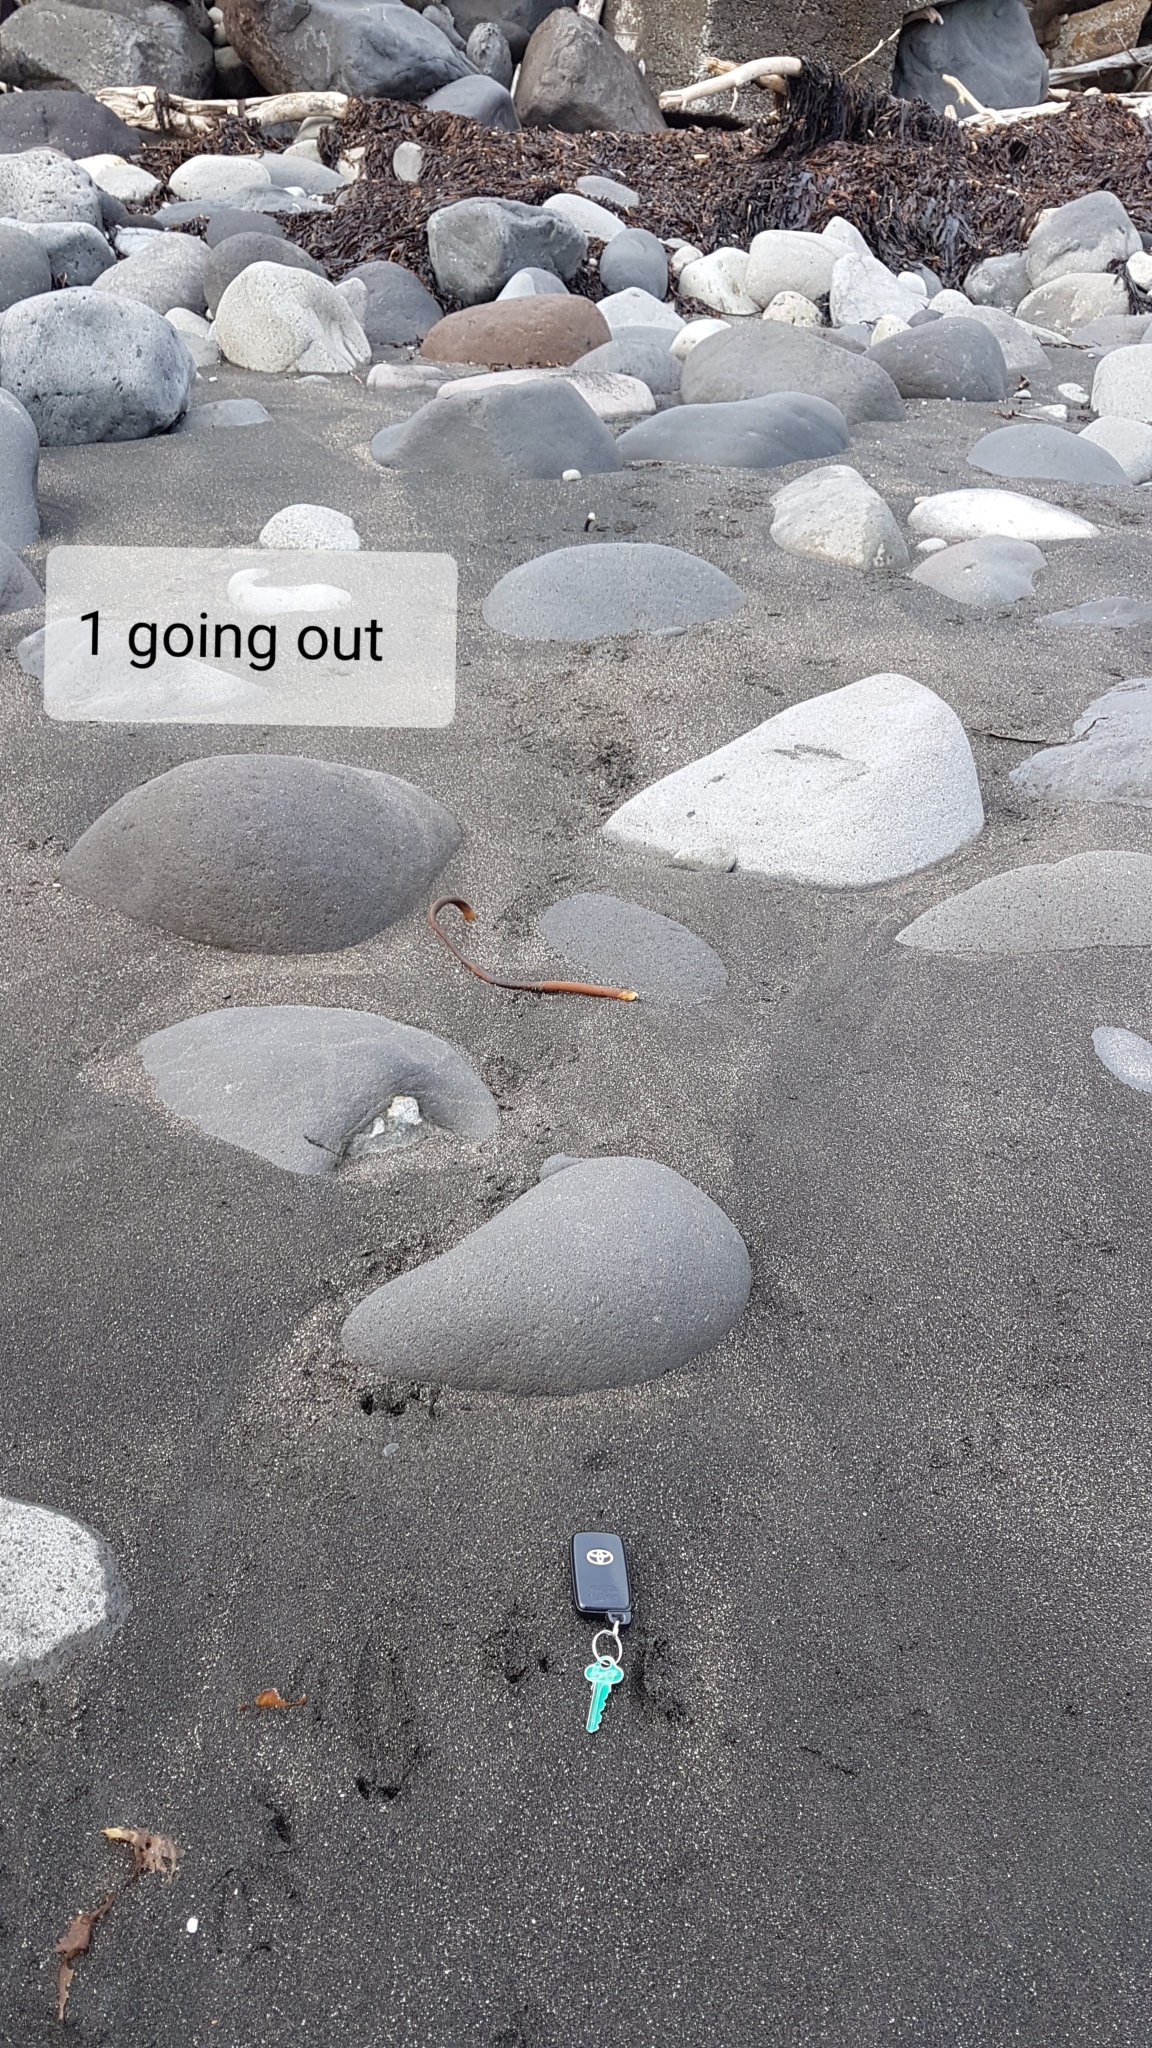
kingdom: Animalia
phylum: Chordata
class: Aves
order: Sphenisciformes
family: Spheniscidae
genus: Eudyptula
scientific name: Eudyptula minor
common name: Little penguin
